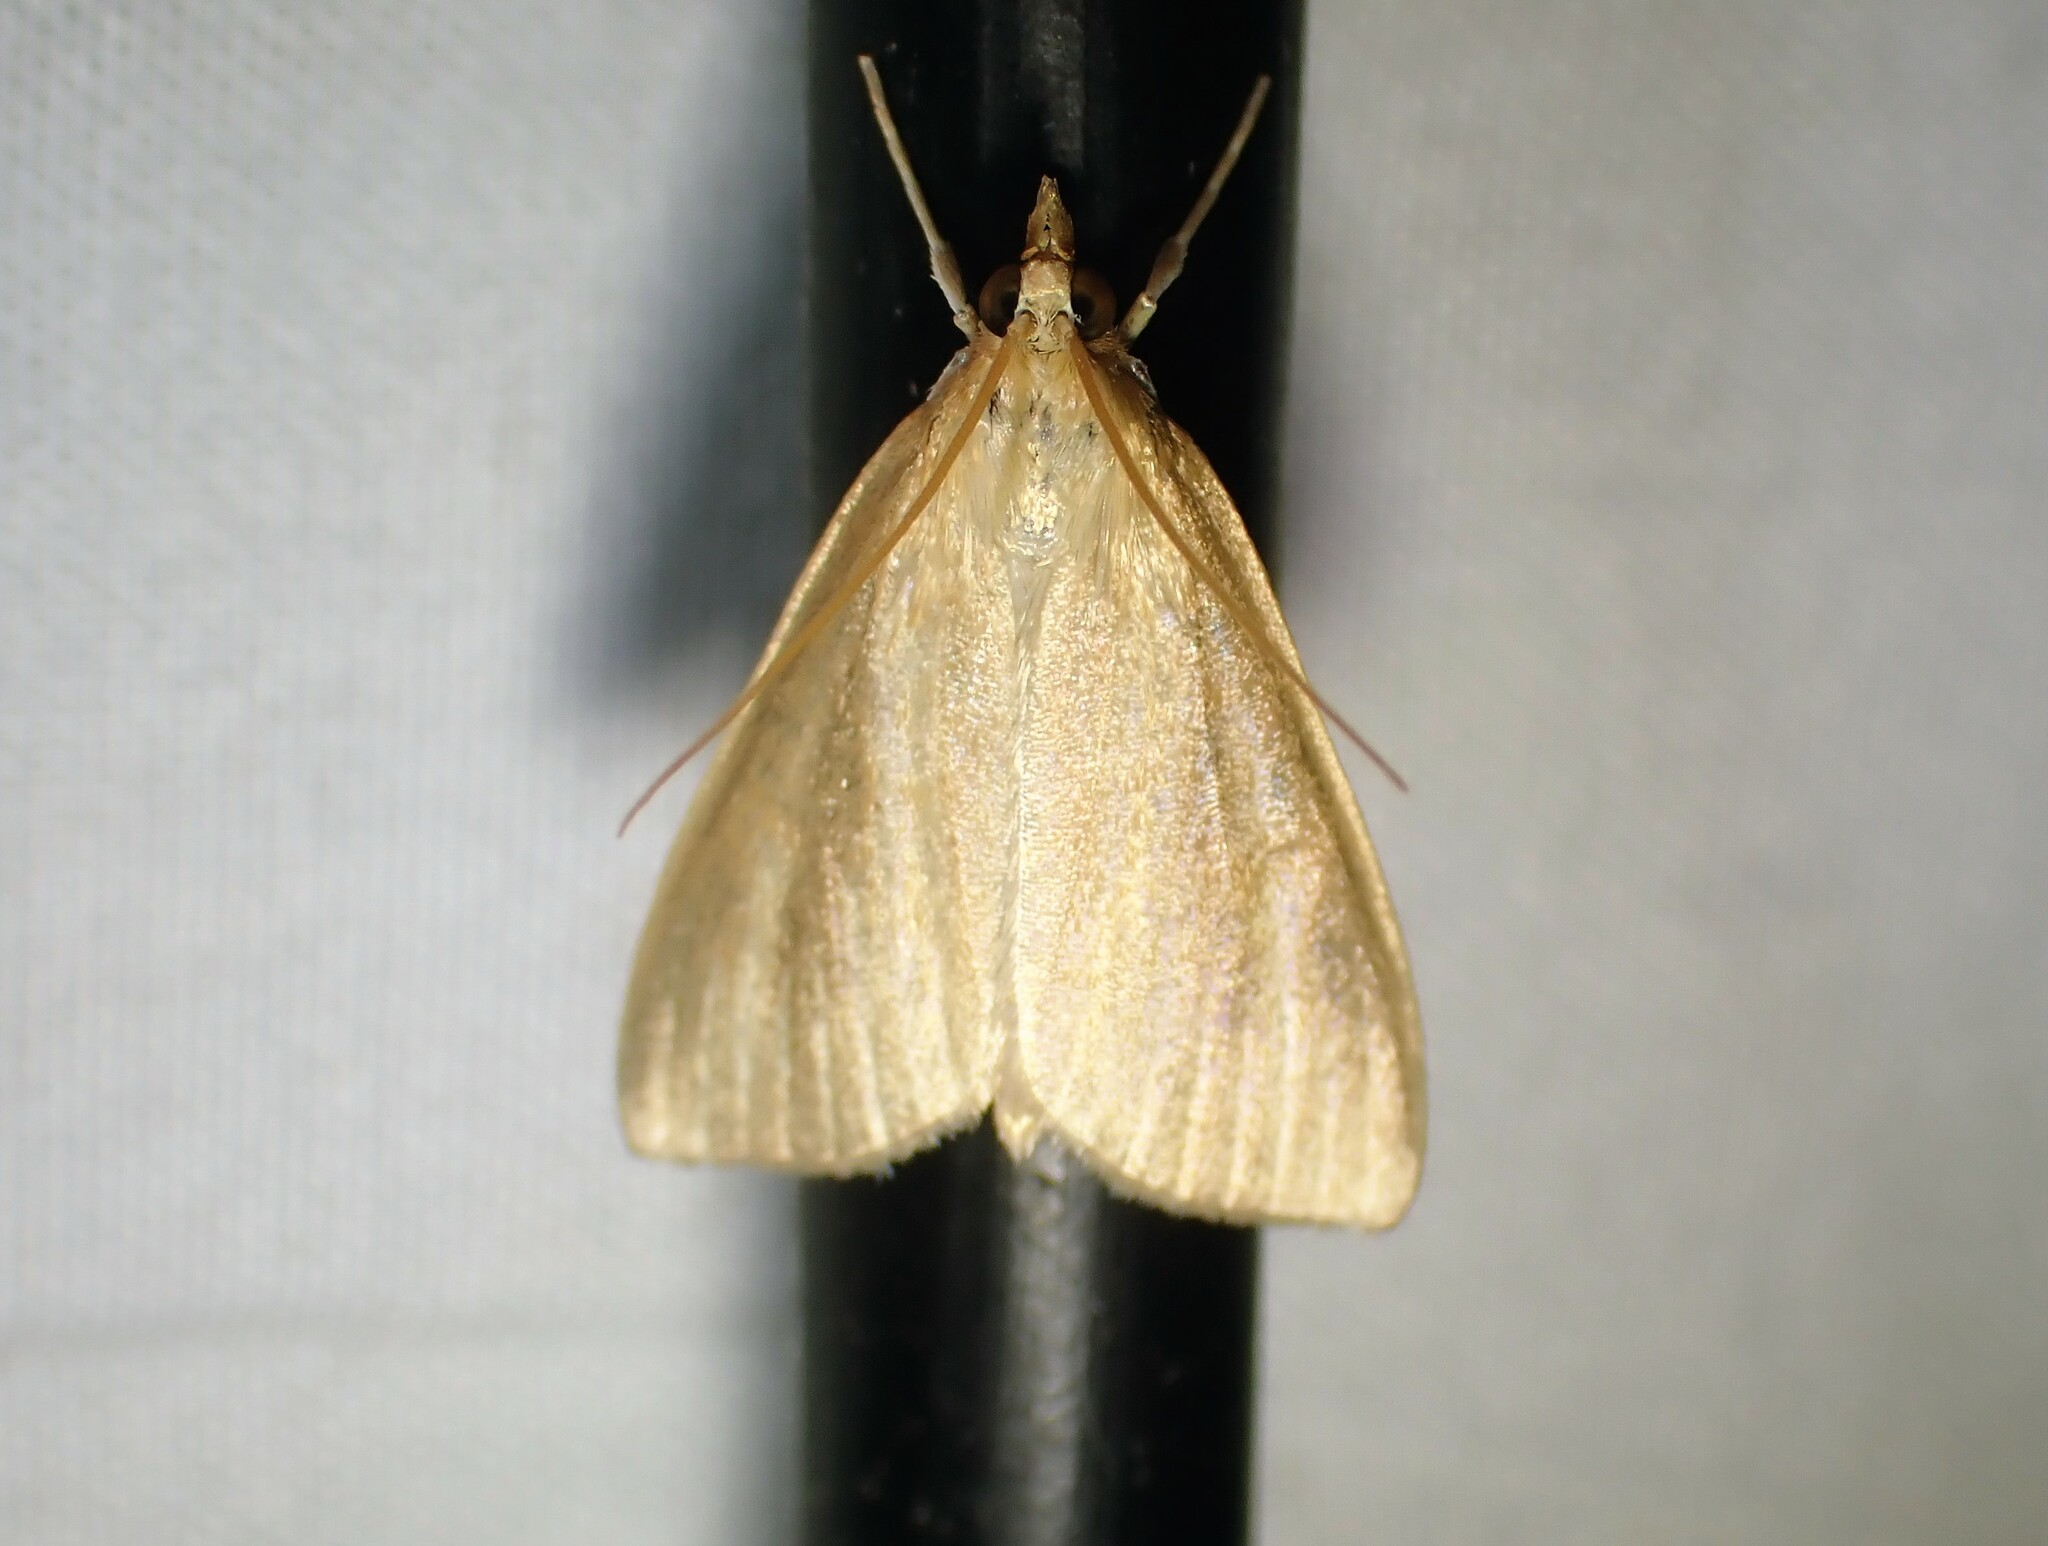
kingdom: Animalia
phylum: Arthropoda
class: Insecta
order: Lepidoptera
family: Crambidae
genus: Nascia
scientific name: Nascia acutellus
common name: Streaked orange moth
